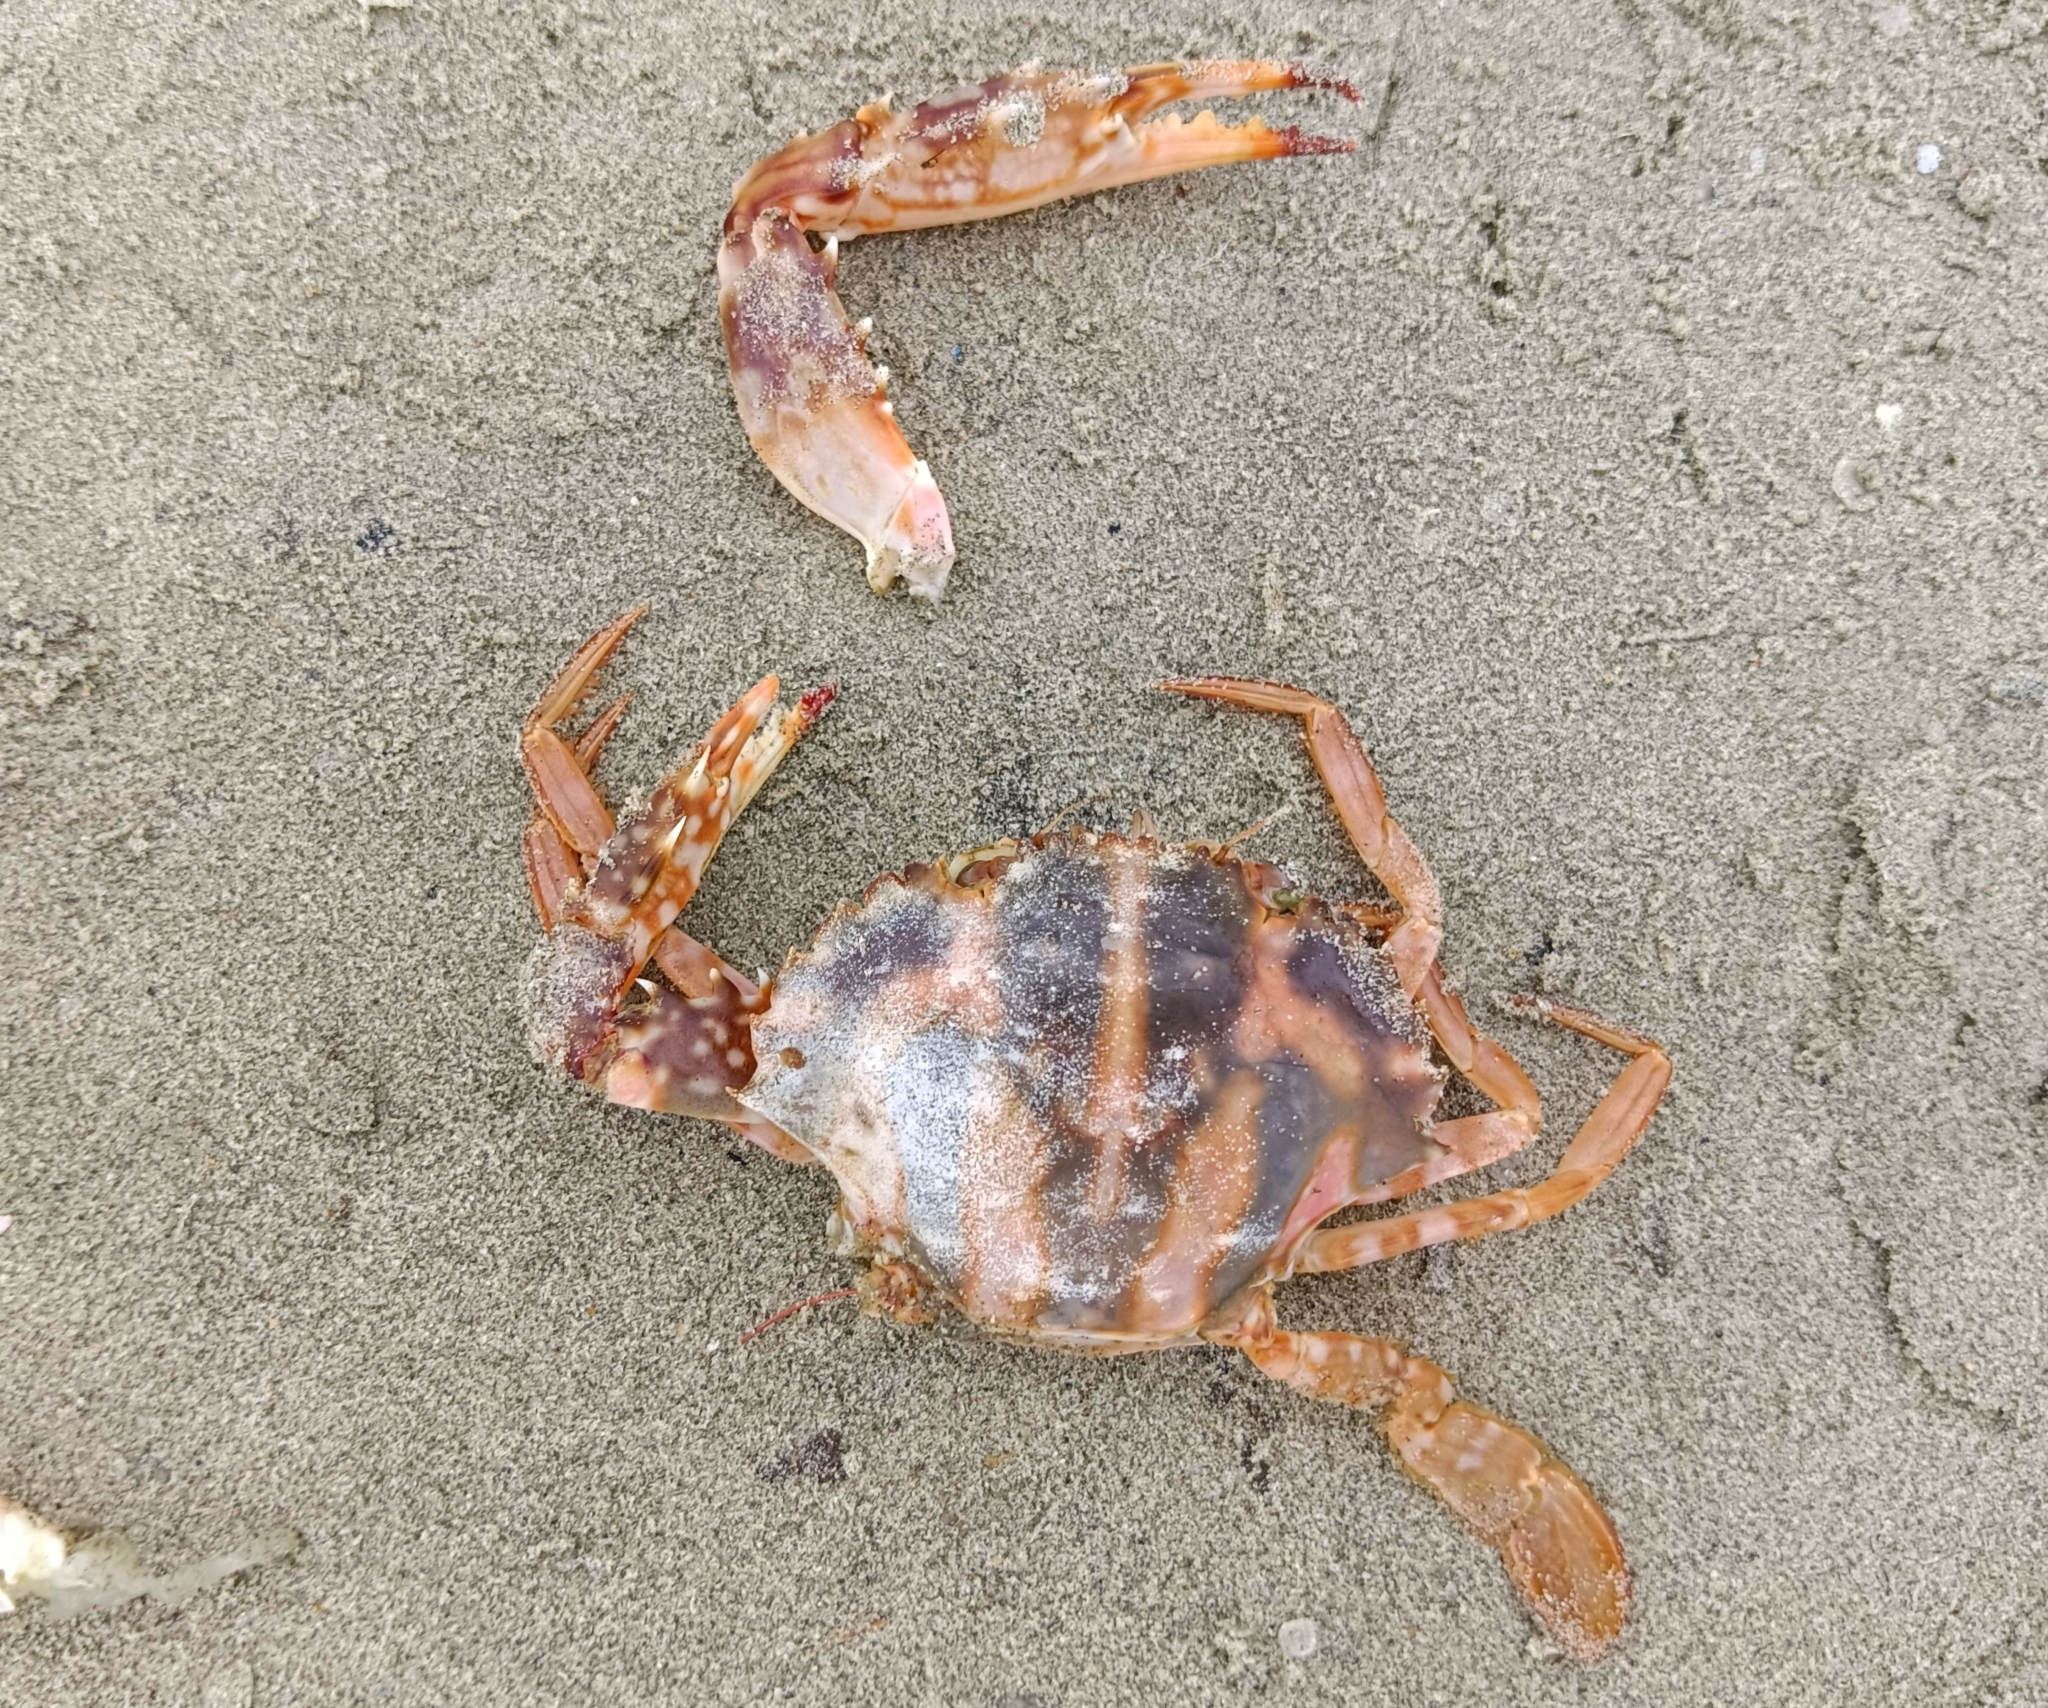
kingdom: Animalia
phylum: Arthropoda
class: Malacostraca
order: Decapoda
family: Portunidae
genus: Charybdis
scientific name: Charybdis feriata
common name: Striped swimming crab
